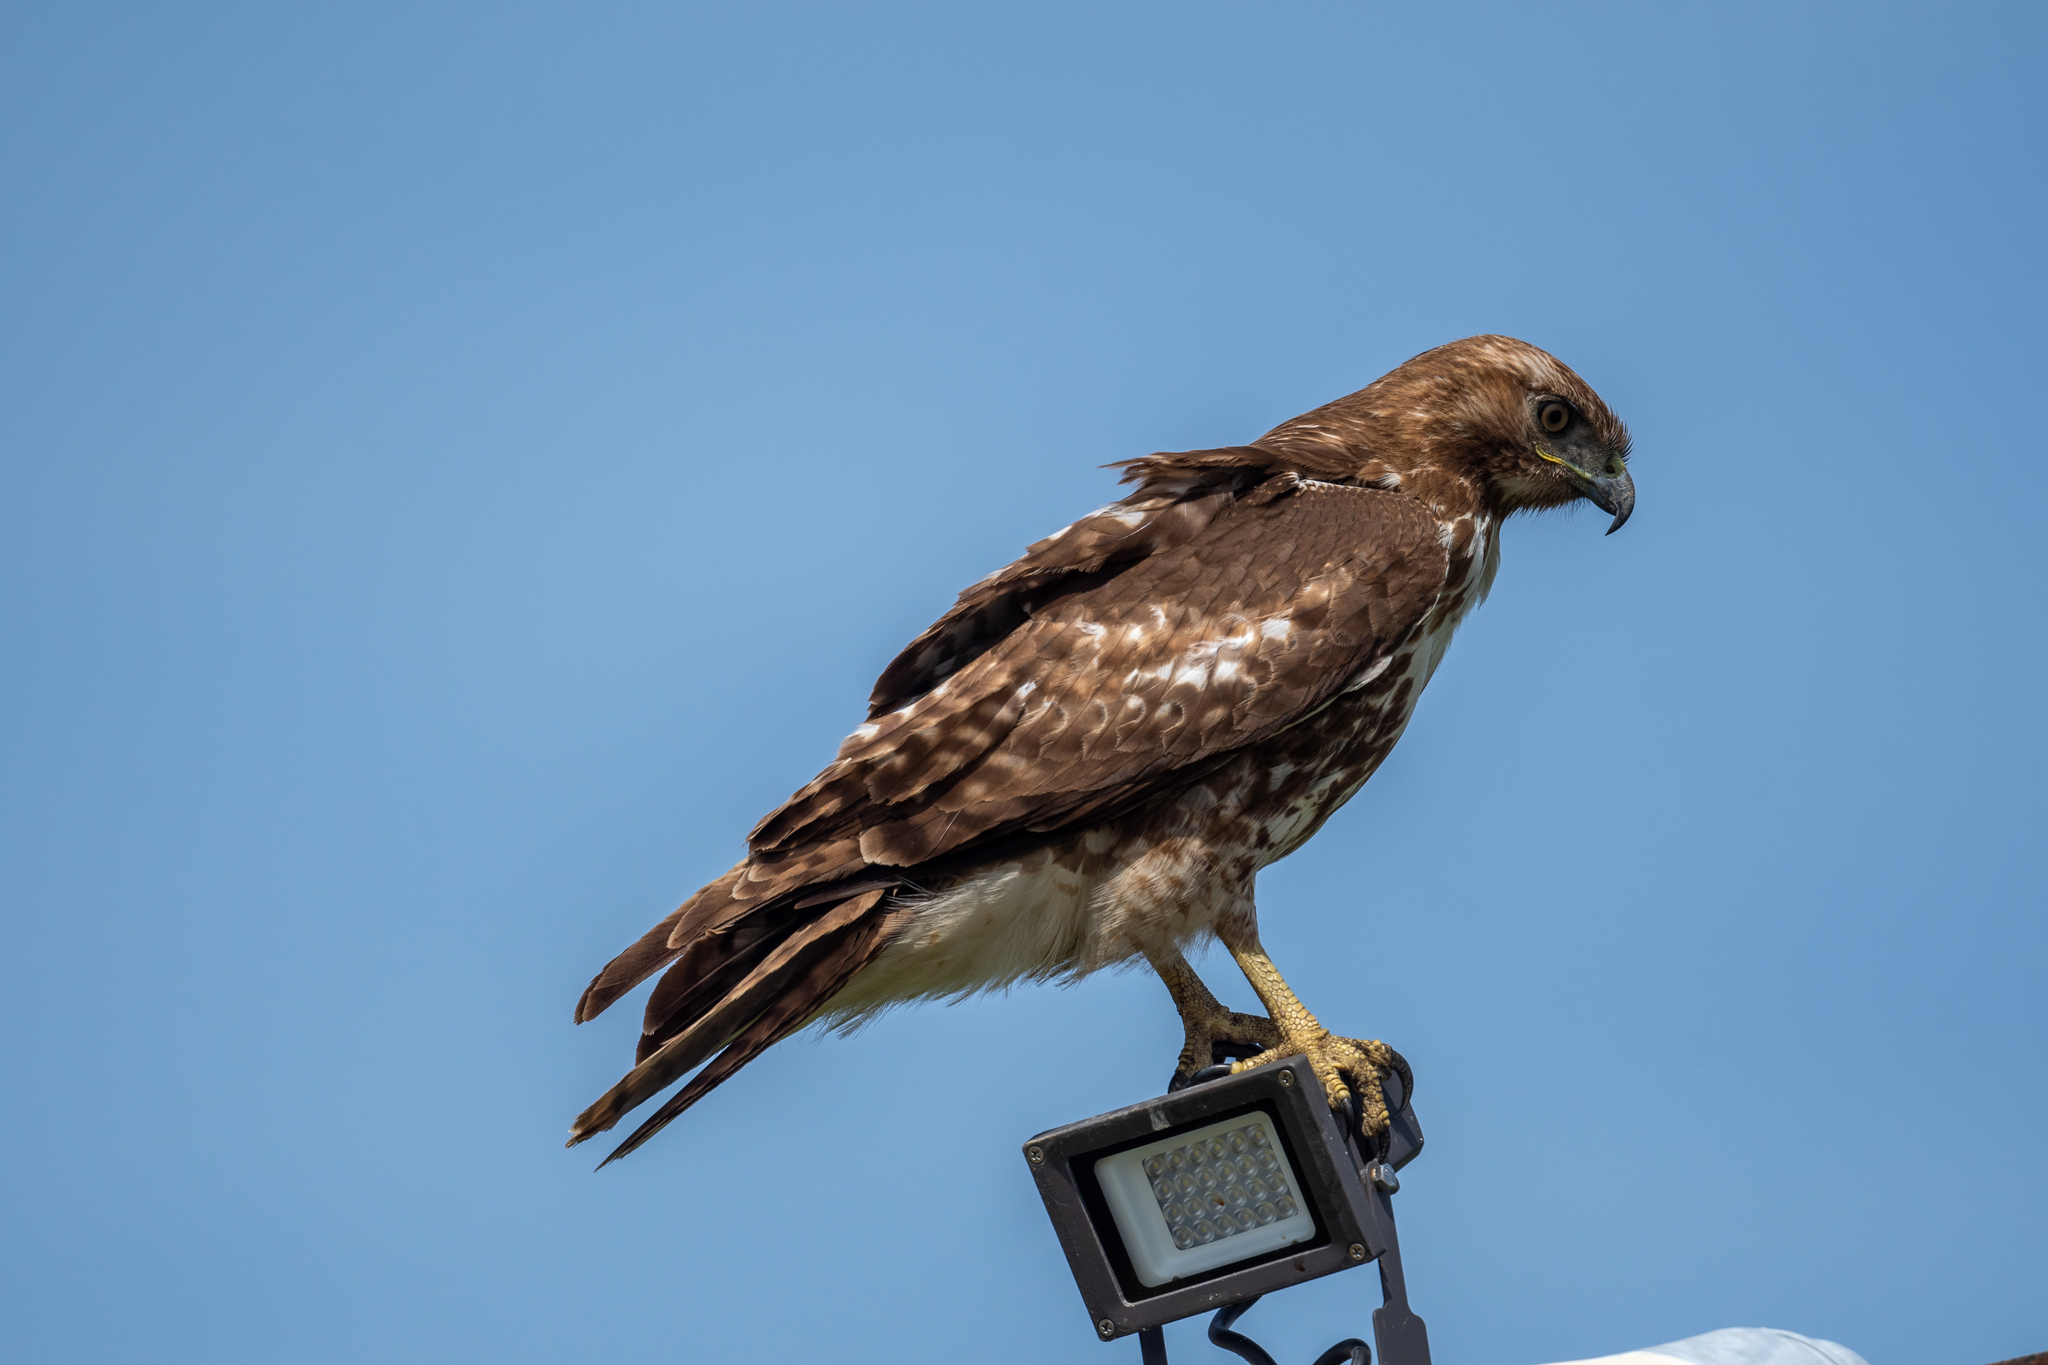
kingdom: Animalia
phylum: Chordata
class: Aves
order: Accipitriformes
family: Accipitridae
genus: Buteo
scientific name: Buteo jamaicensis
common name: Red-tailed hawk
